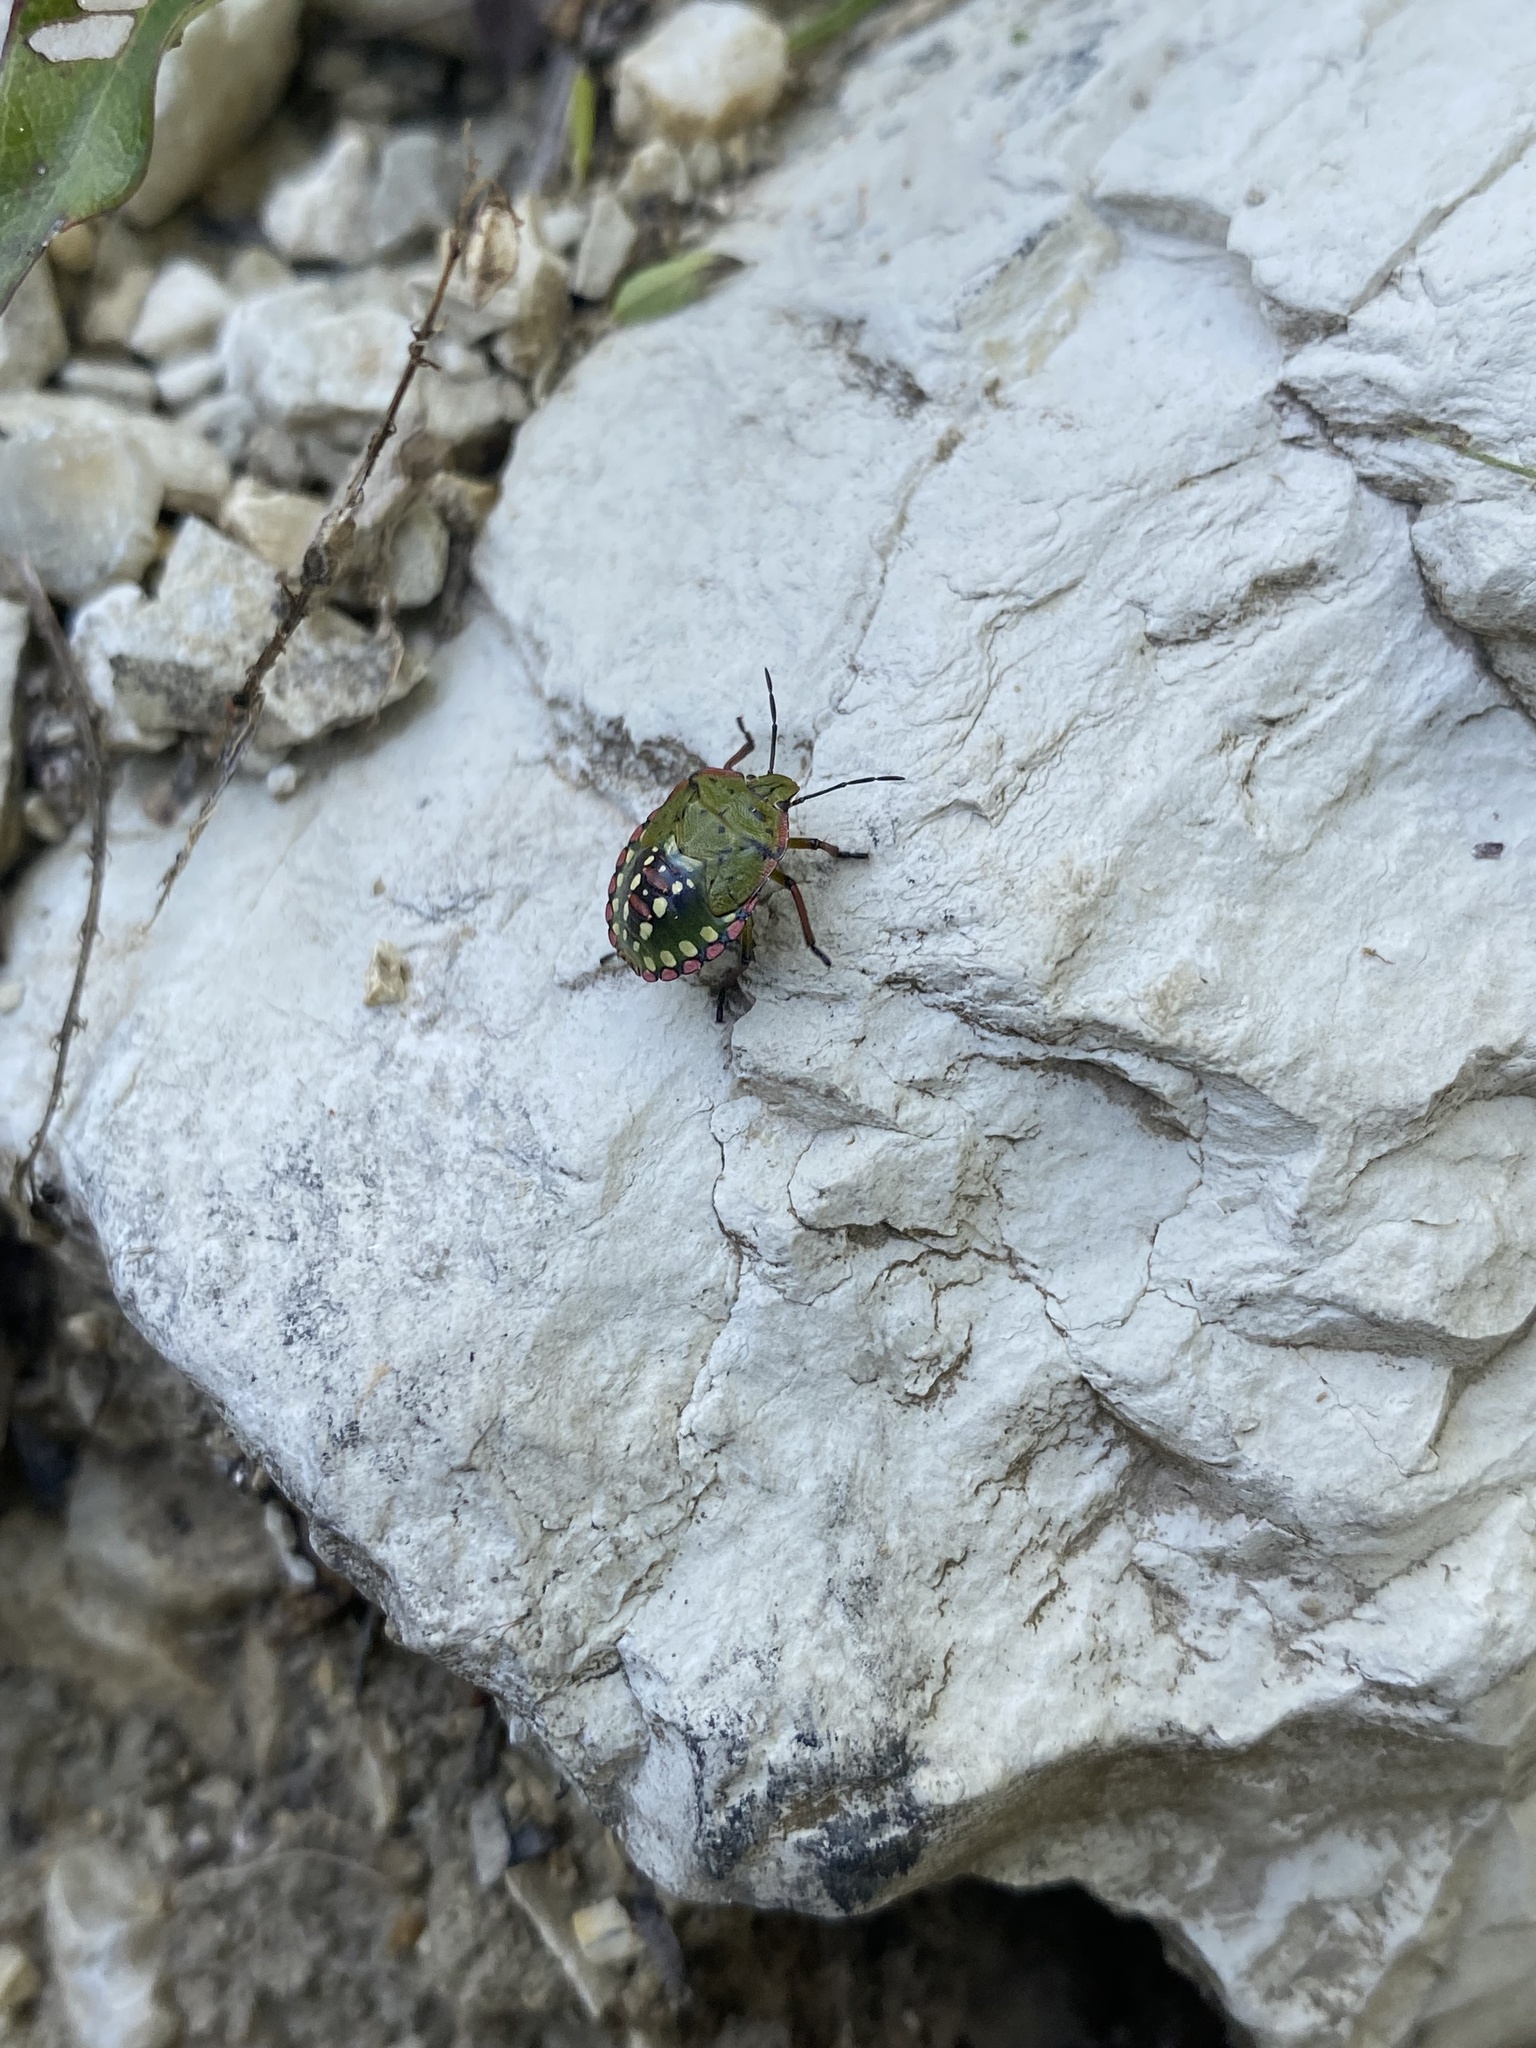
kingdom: Animalia
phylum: Arthropoda
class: Insecta
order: Hemiptera
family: Pentatomidae
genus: Nezara
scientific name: Nezara viridula
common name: Southern green stink bug
